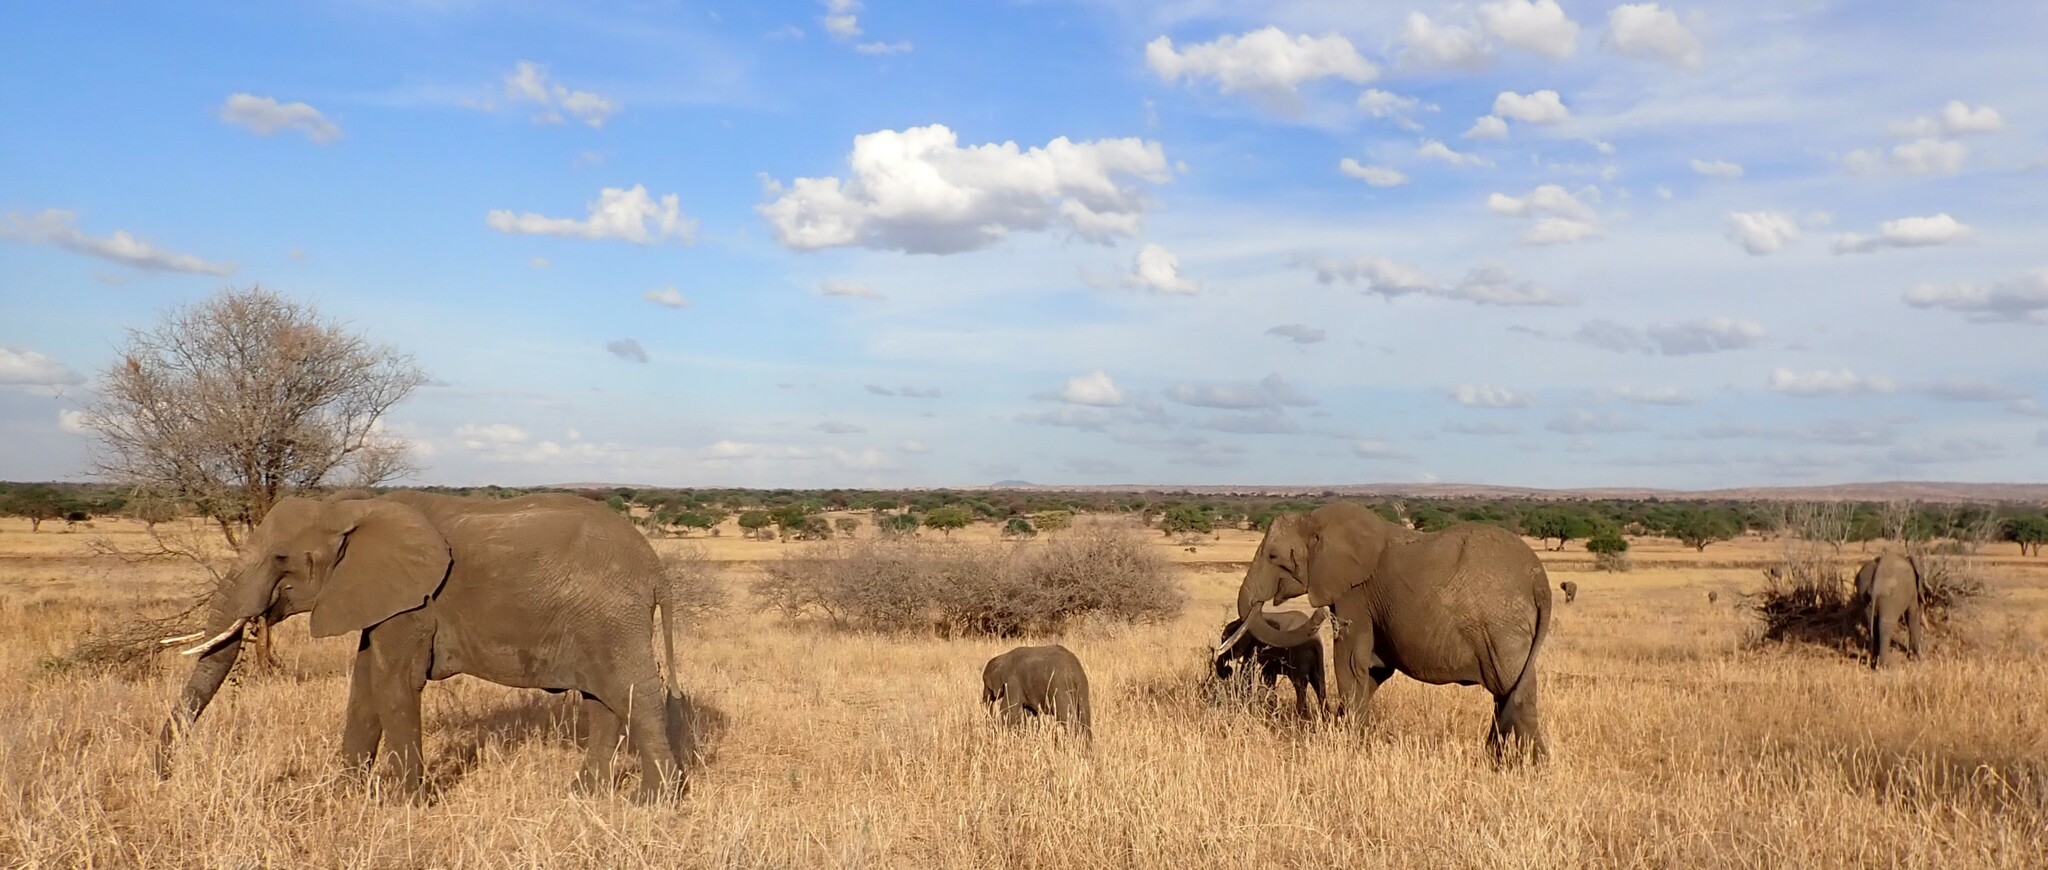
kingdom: Animalia
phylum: Chordata
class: Mammalia
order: Proboscidea
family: Elephantidae
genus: Loxodonta
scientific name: Loxodonta africana
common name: African elephant
